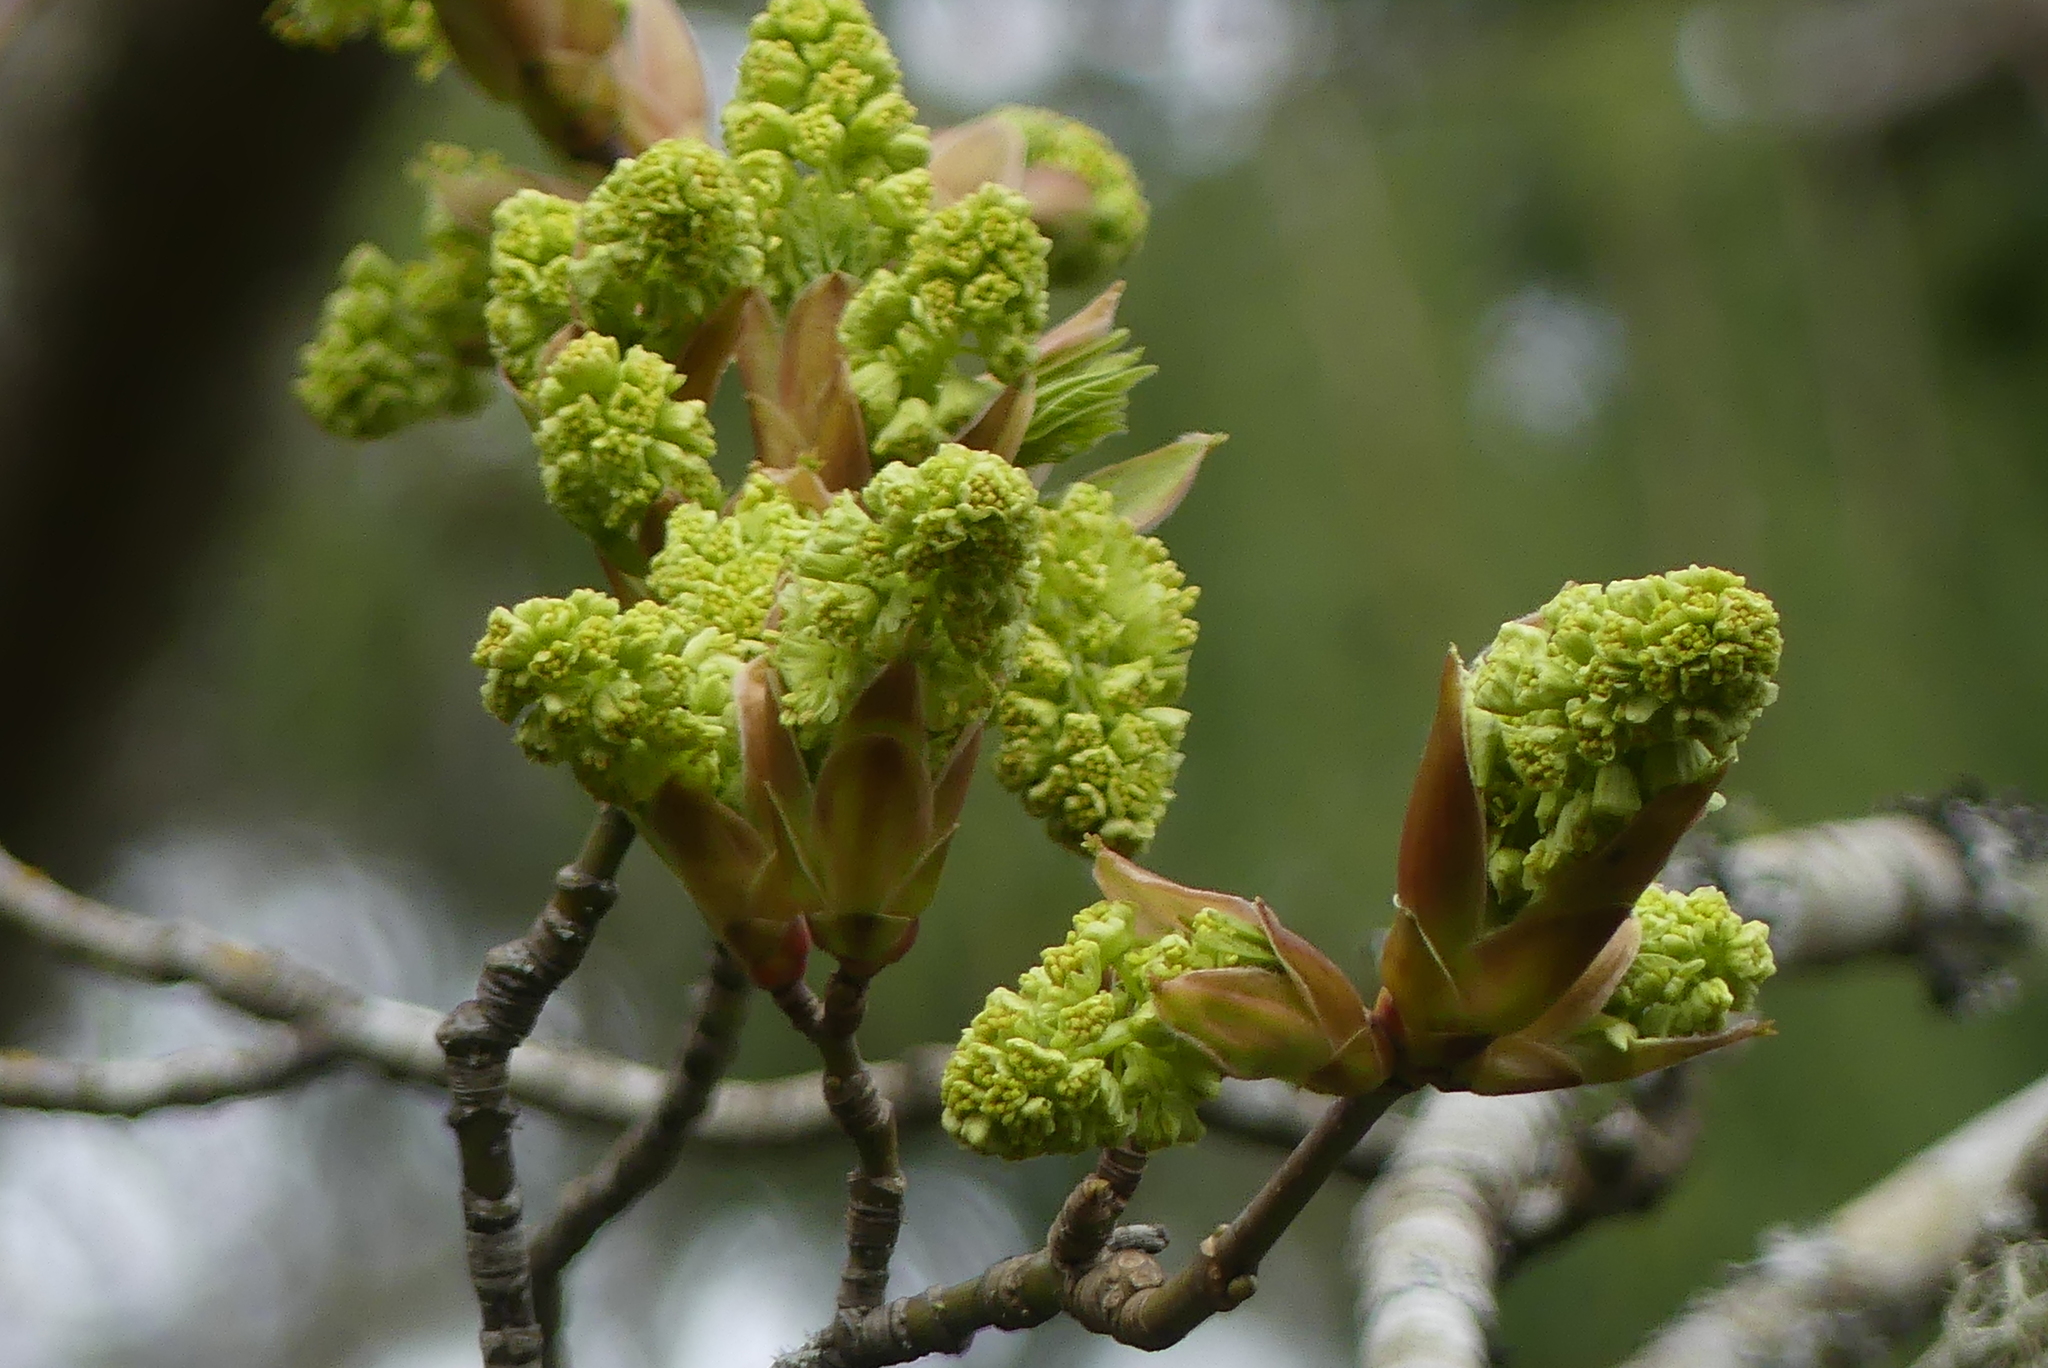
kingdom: Plantae
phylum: Tracheophyta
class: Magnoliopsida
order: Sapindales
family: Sapindaceae
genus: Acer
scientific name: Acer macrophyllum
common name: Oregon maple
